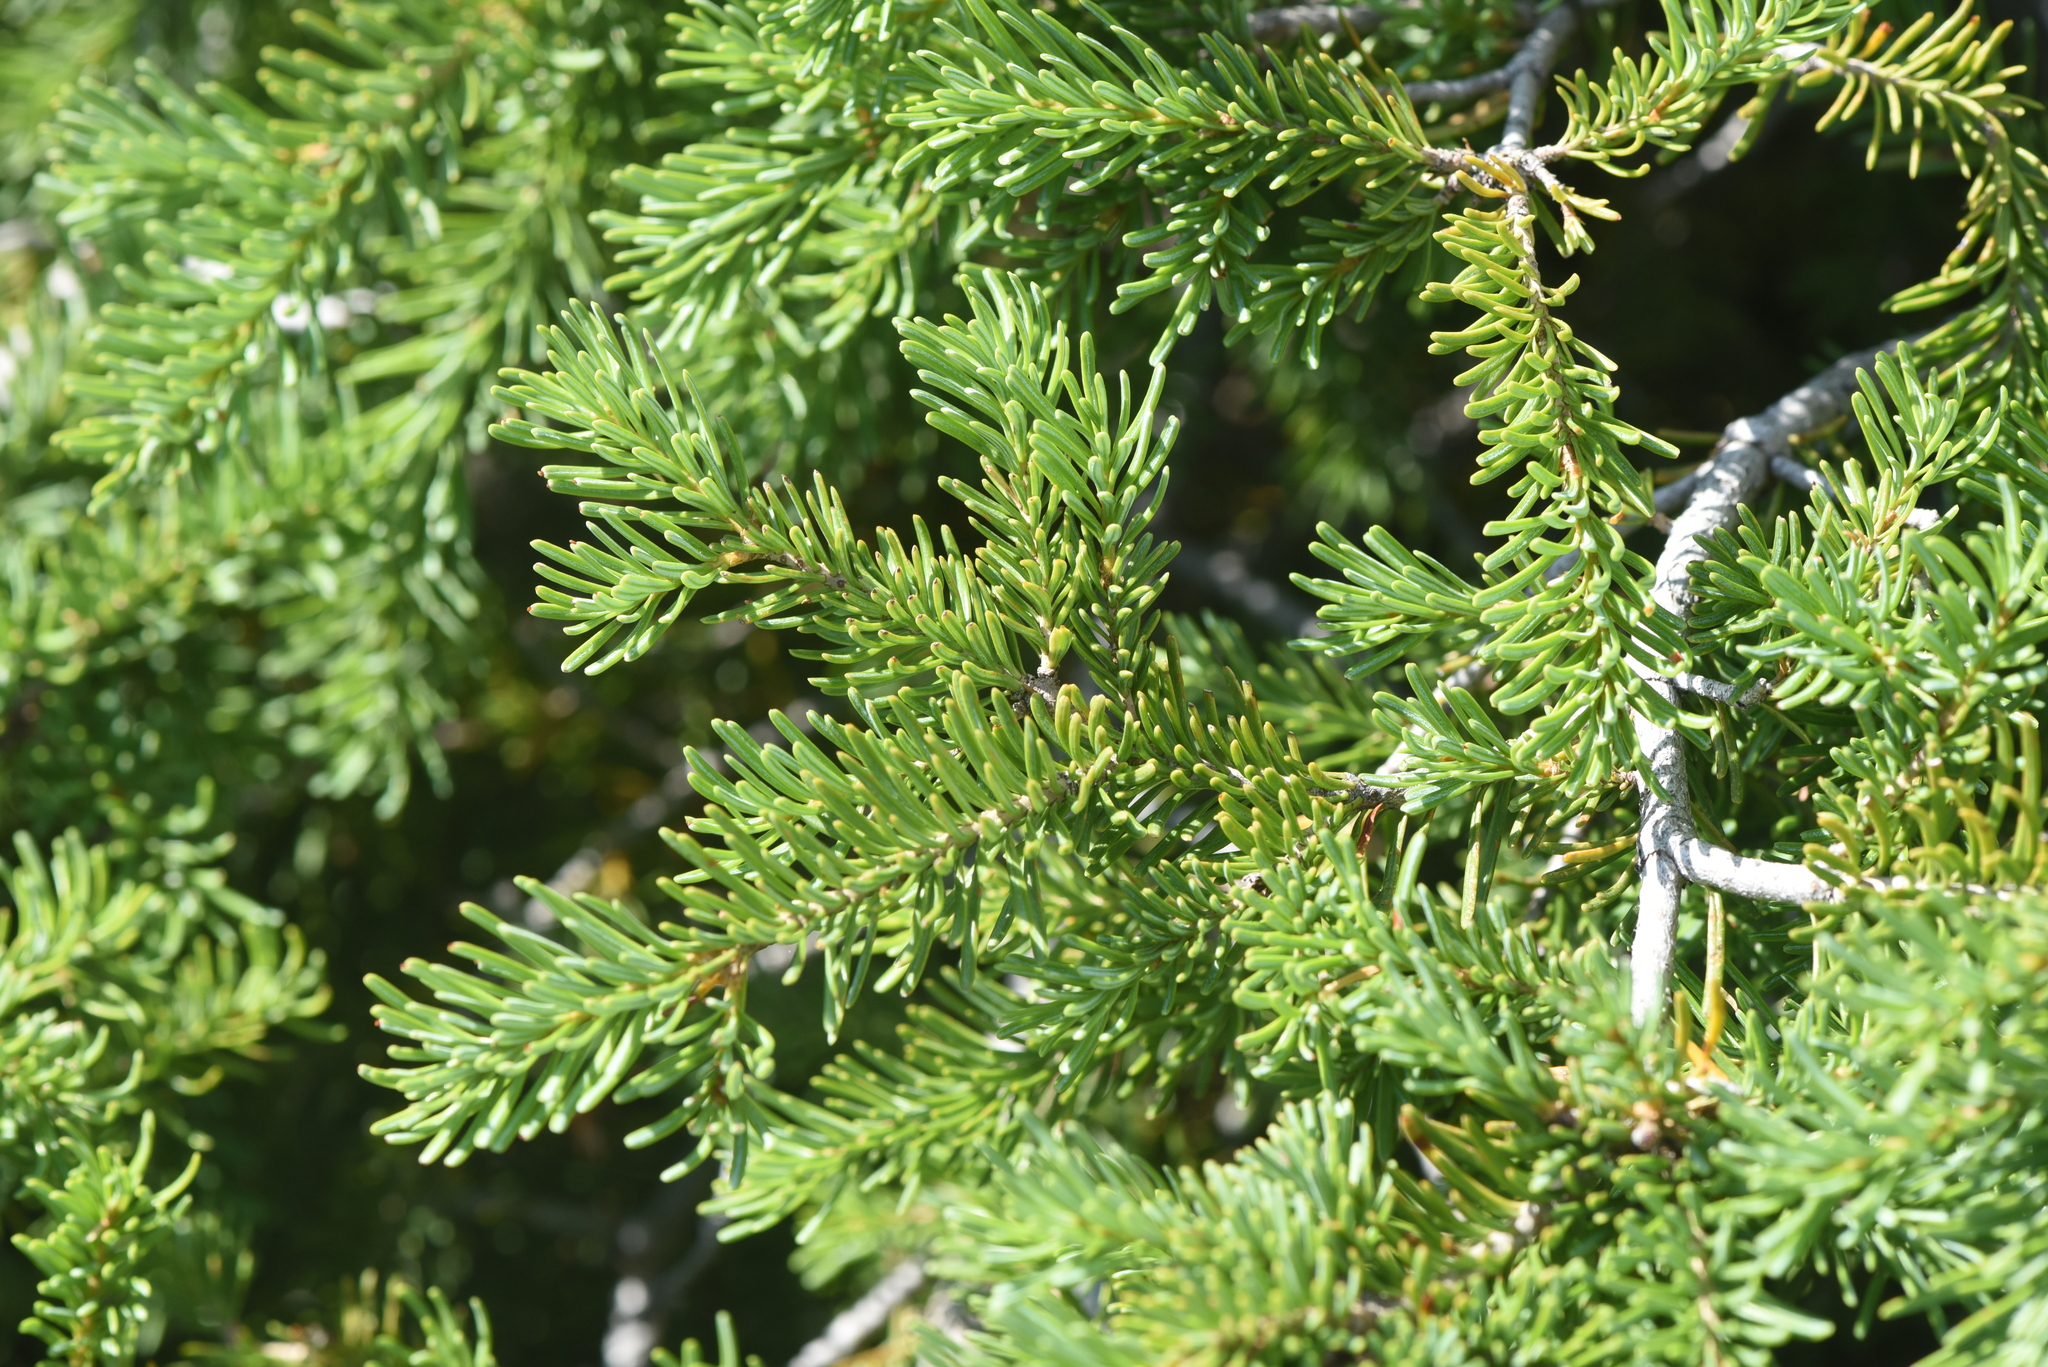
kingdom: Plantae
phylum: Tracheophyta
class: Pinopsida
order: Pinales
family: Pinaceae
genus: Abies
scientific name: Abies lasiocarpa
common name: Subalpine fir
